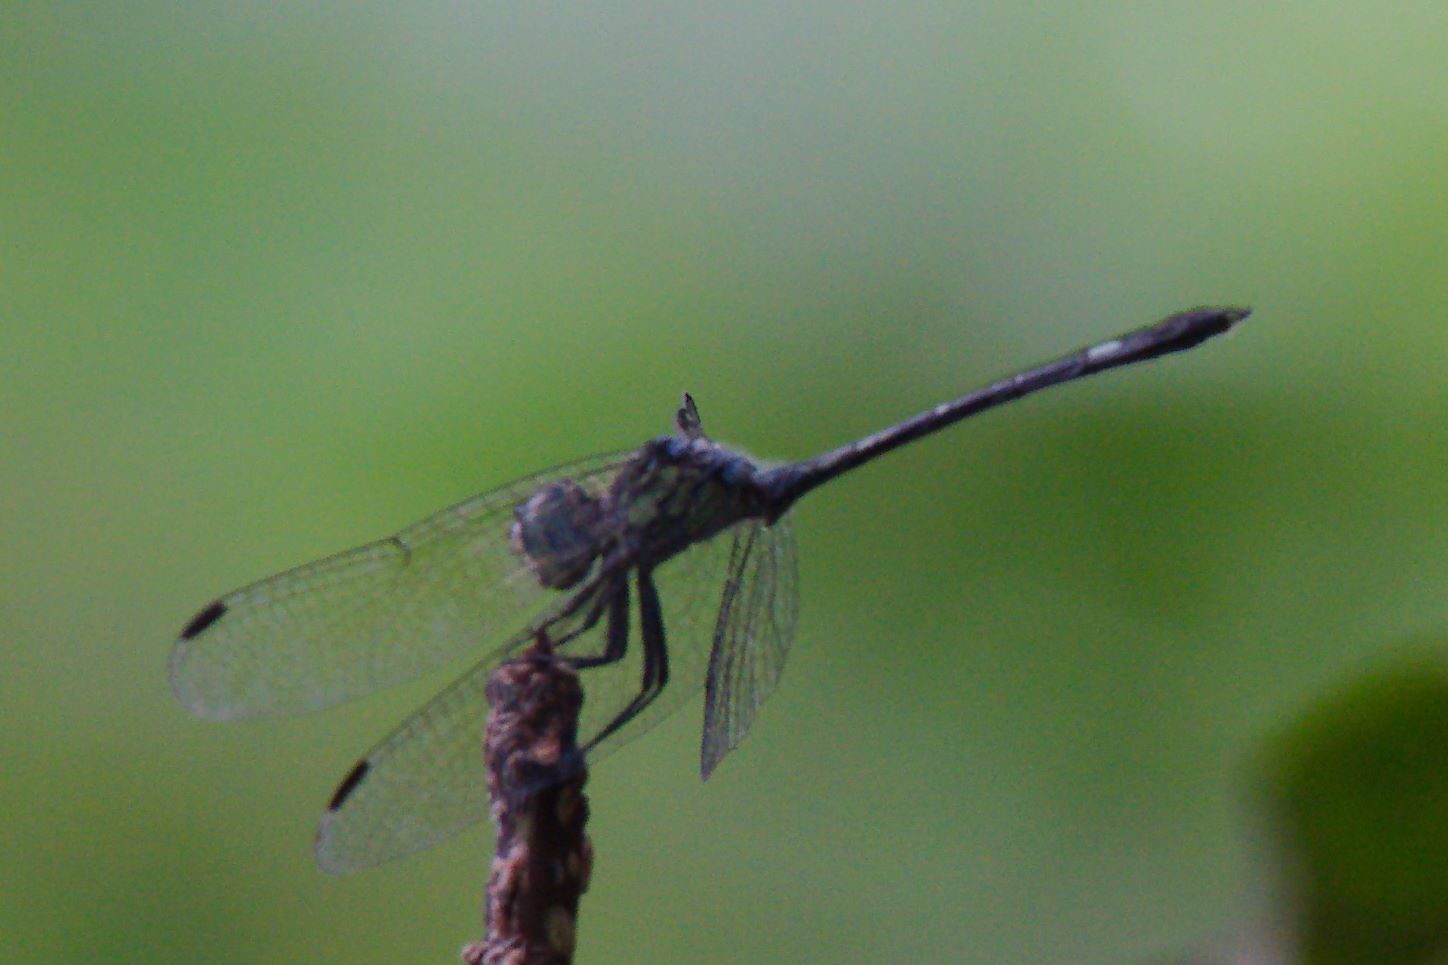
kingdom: Animalia
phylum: Arthropoda
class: Insecta
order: Odonata
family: Libellulidae
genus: Micrathyria
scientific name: Micrathyria didyma
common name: Three-striped dasher
